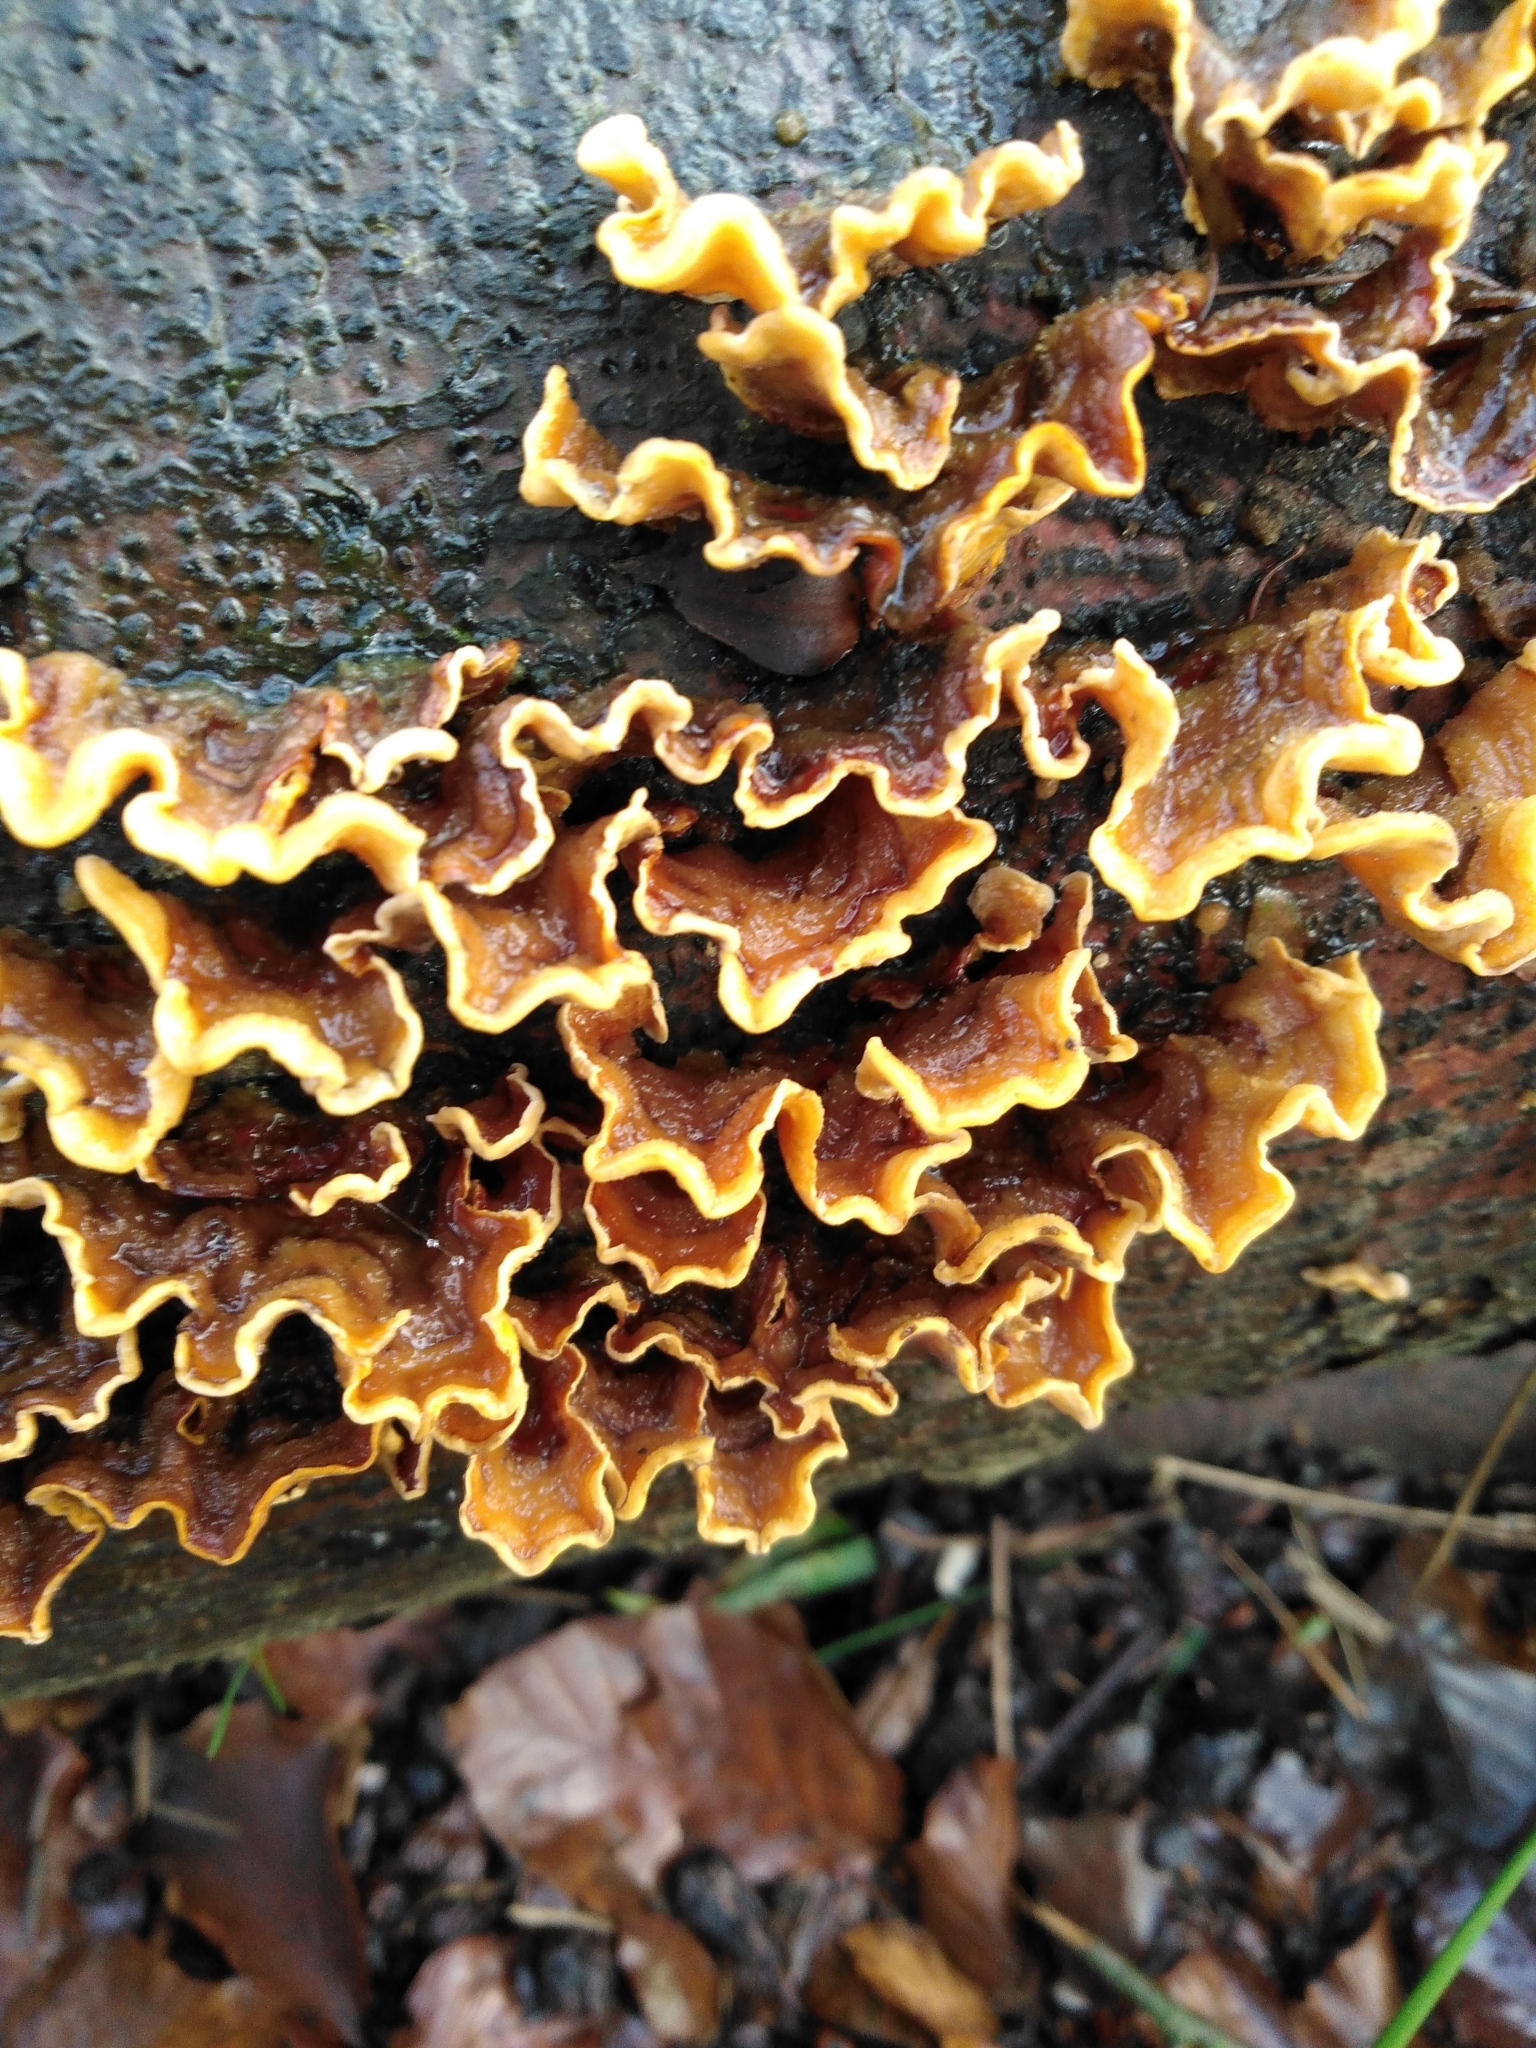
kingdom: Fungi
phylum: Basidiomycota
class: Agaricomycetes
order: Russulales
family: Stereaceae
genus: Stereum
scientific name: Stereum hirsutum
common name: Hairy curtain crust
